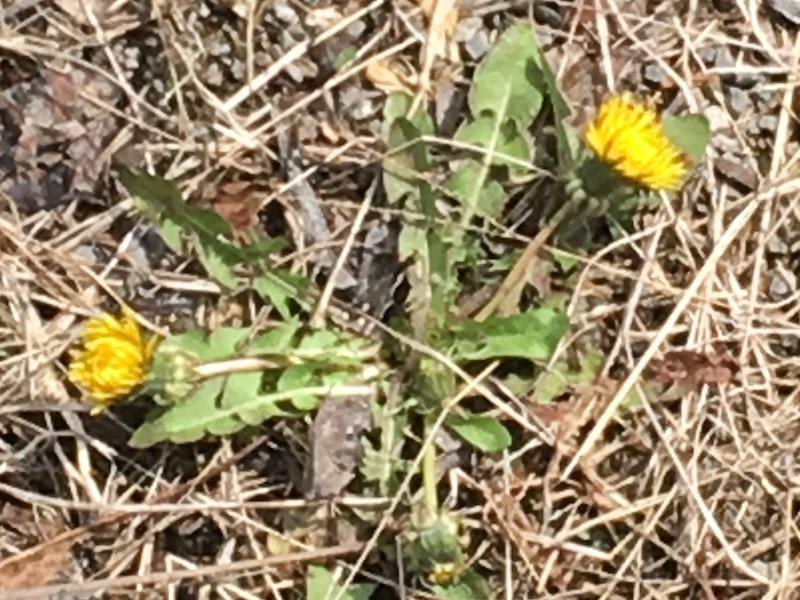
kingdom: Plantae
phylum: Tracheophyta
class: Magnoliopsida
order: Asterales
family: Asteraceae
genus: Taraxacum
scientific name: Taraxacum officinale
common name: Common dandelion
